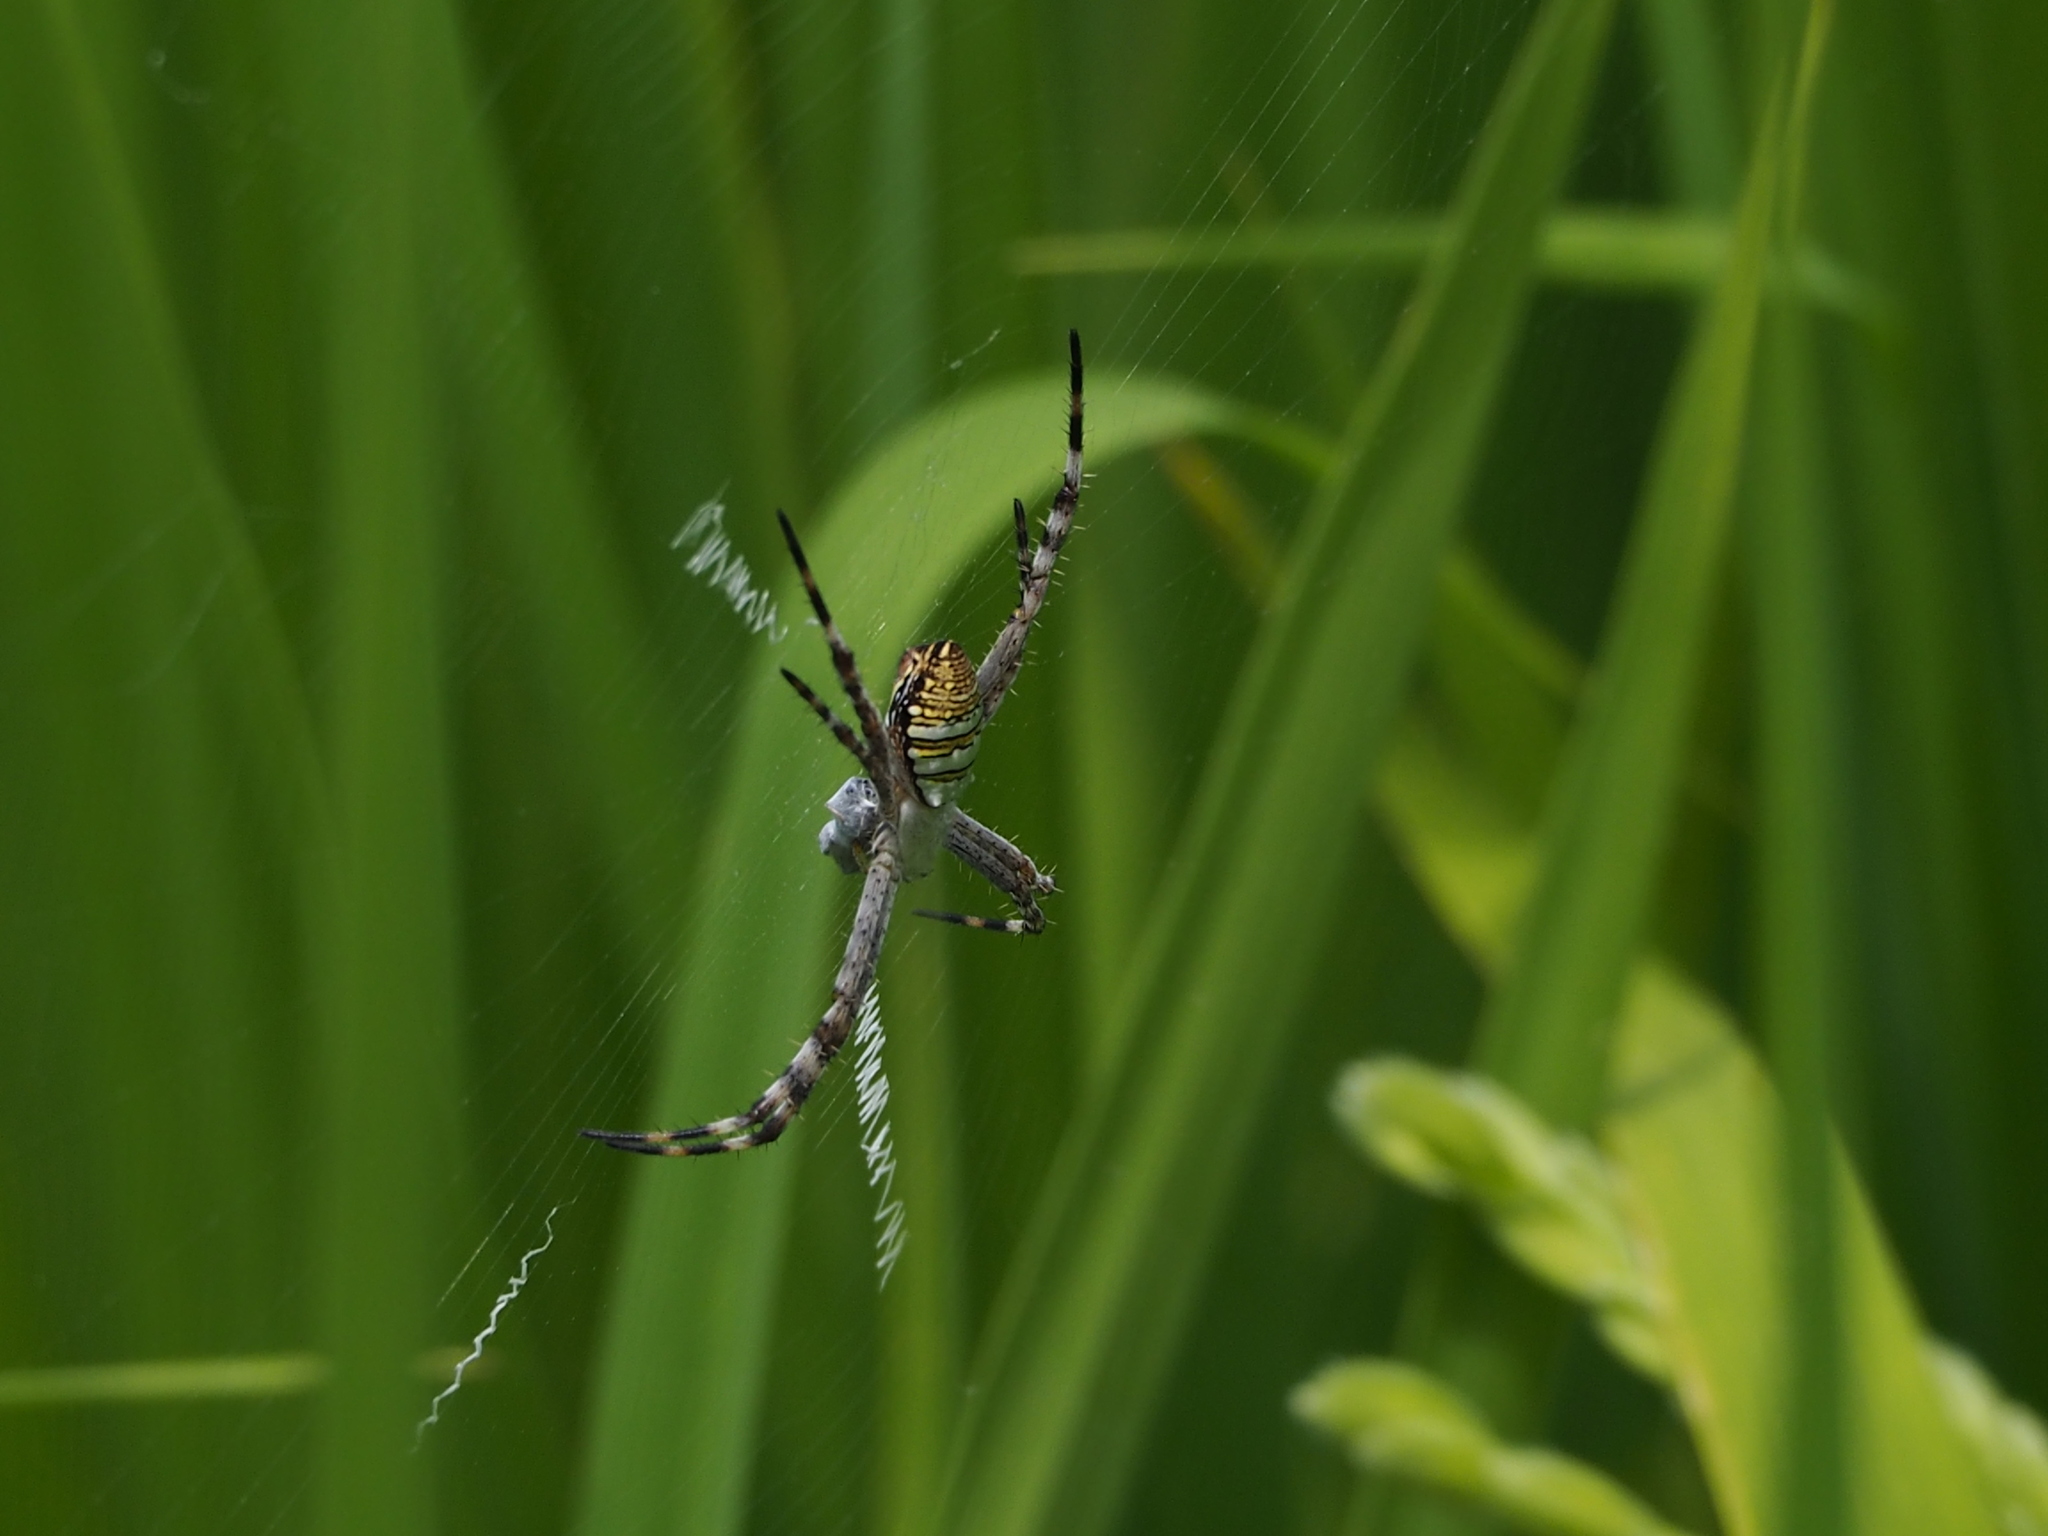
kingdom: Animalia
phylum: Arthropoda
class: Arachnida
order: Araneae
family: Araneidae
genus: Argiope
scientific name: Argiope aemula
